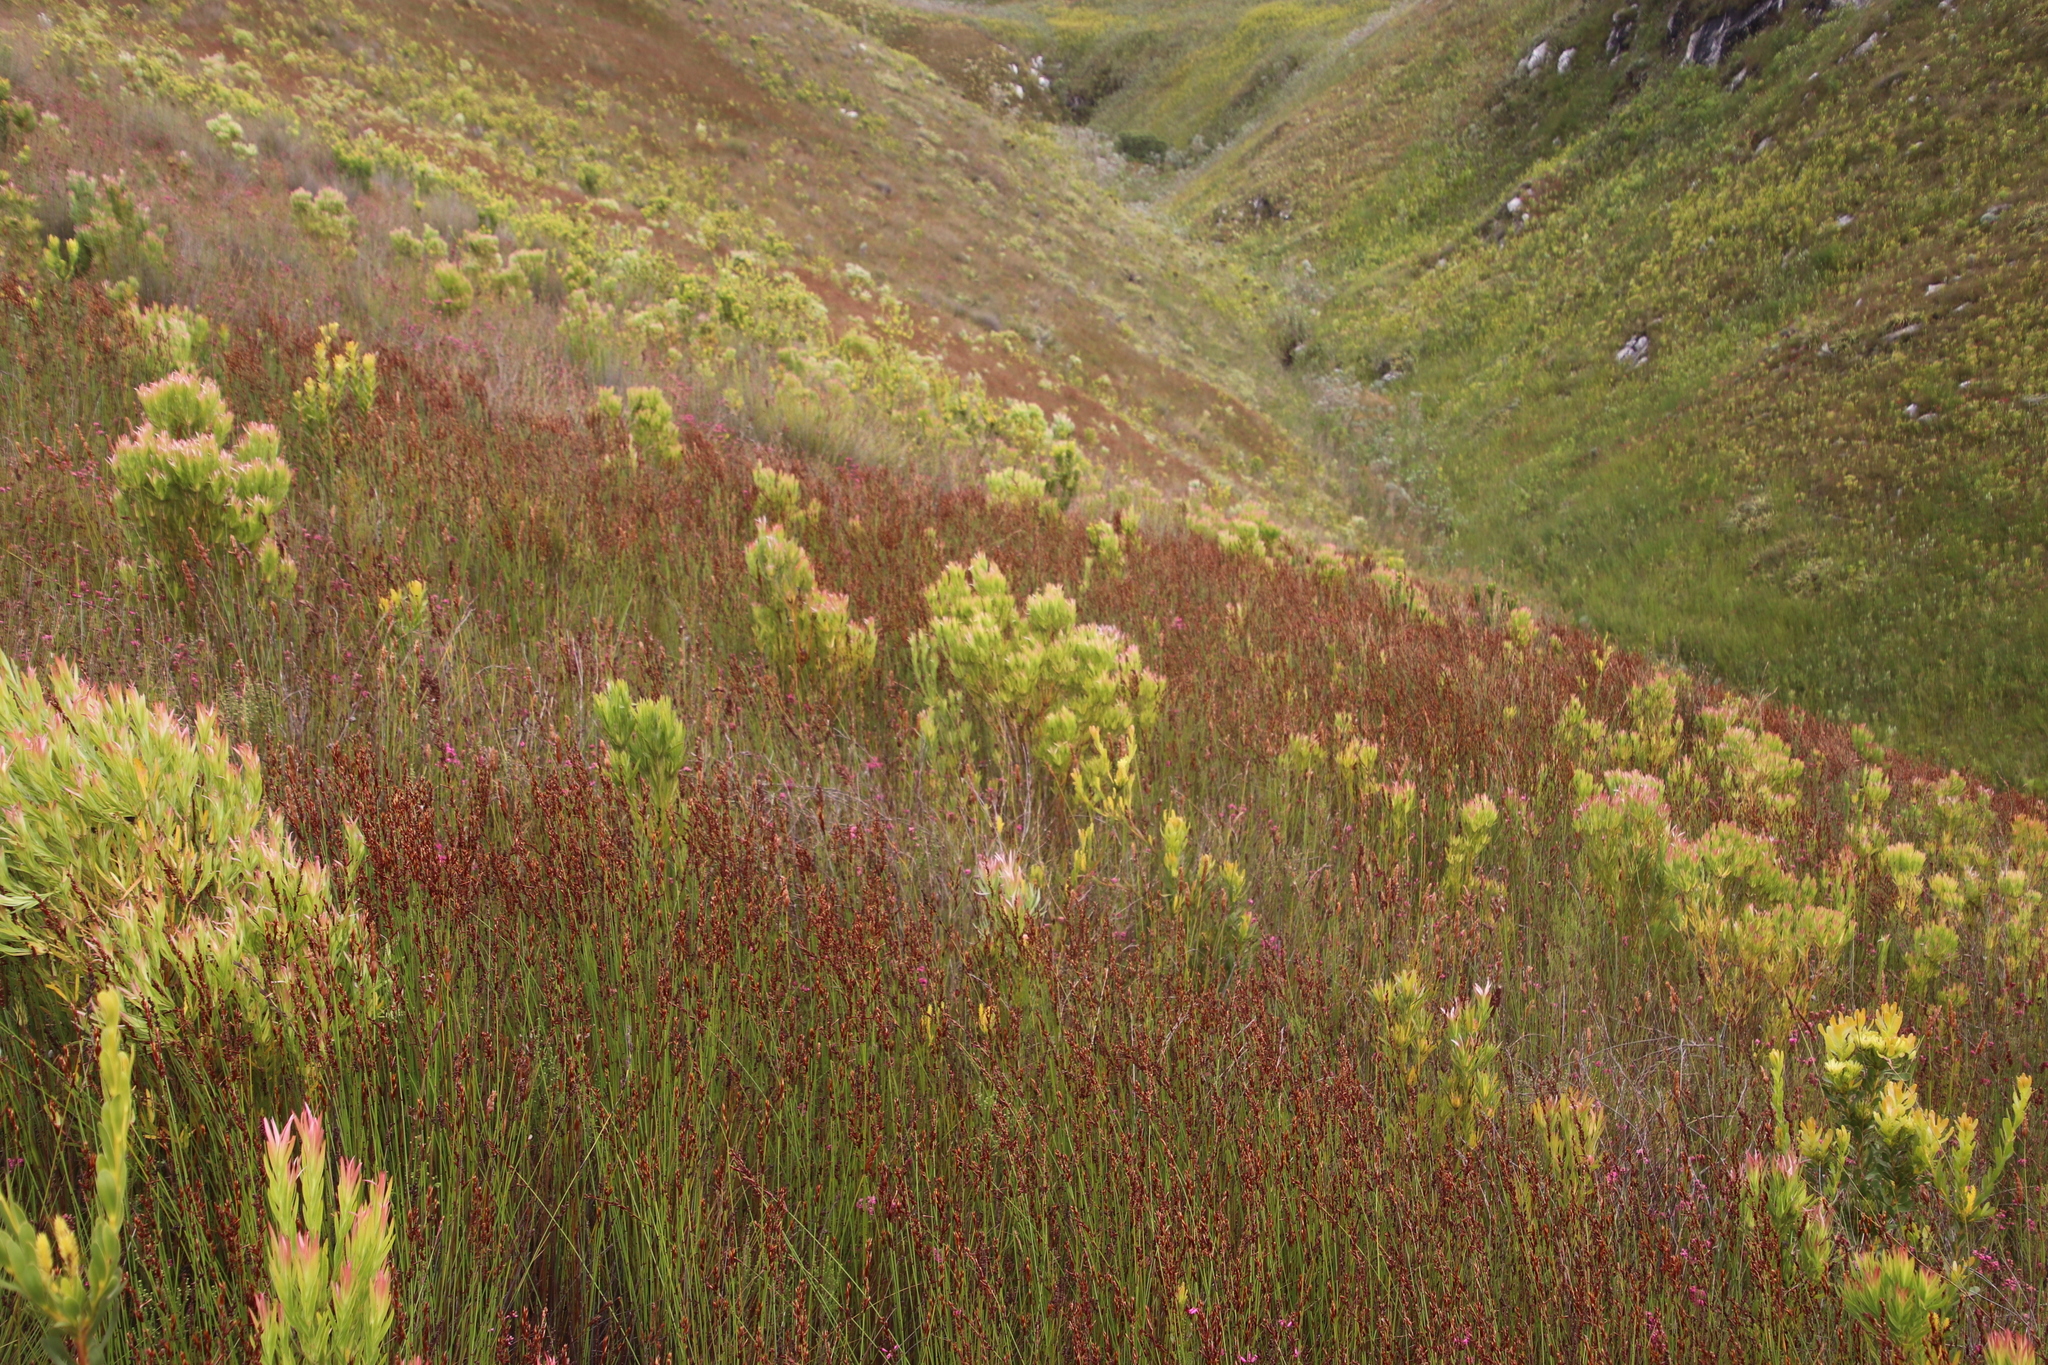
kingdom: Plantae
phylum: Tracheophyta
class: Magnoliopsida
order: Proteales
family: Proteaceae
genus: Leucadendron
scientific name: Leucadendron xanthoconus
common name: Sickle-leaf conebush
